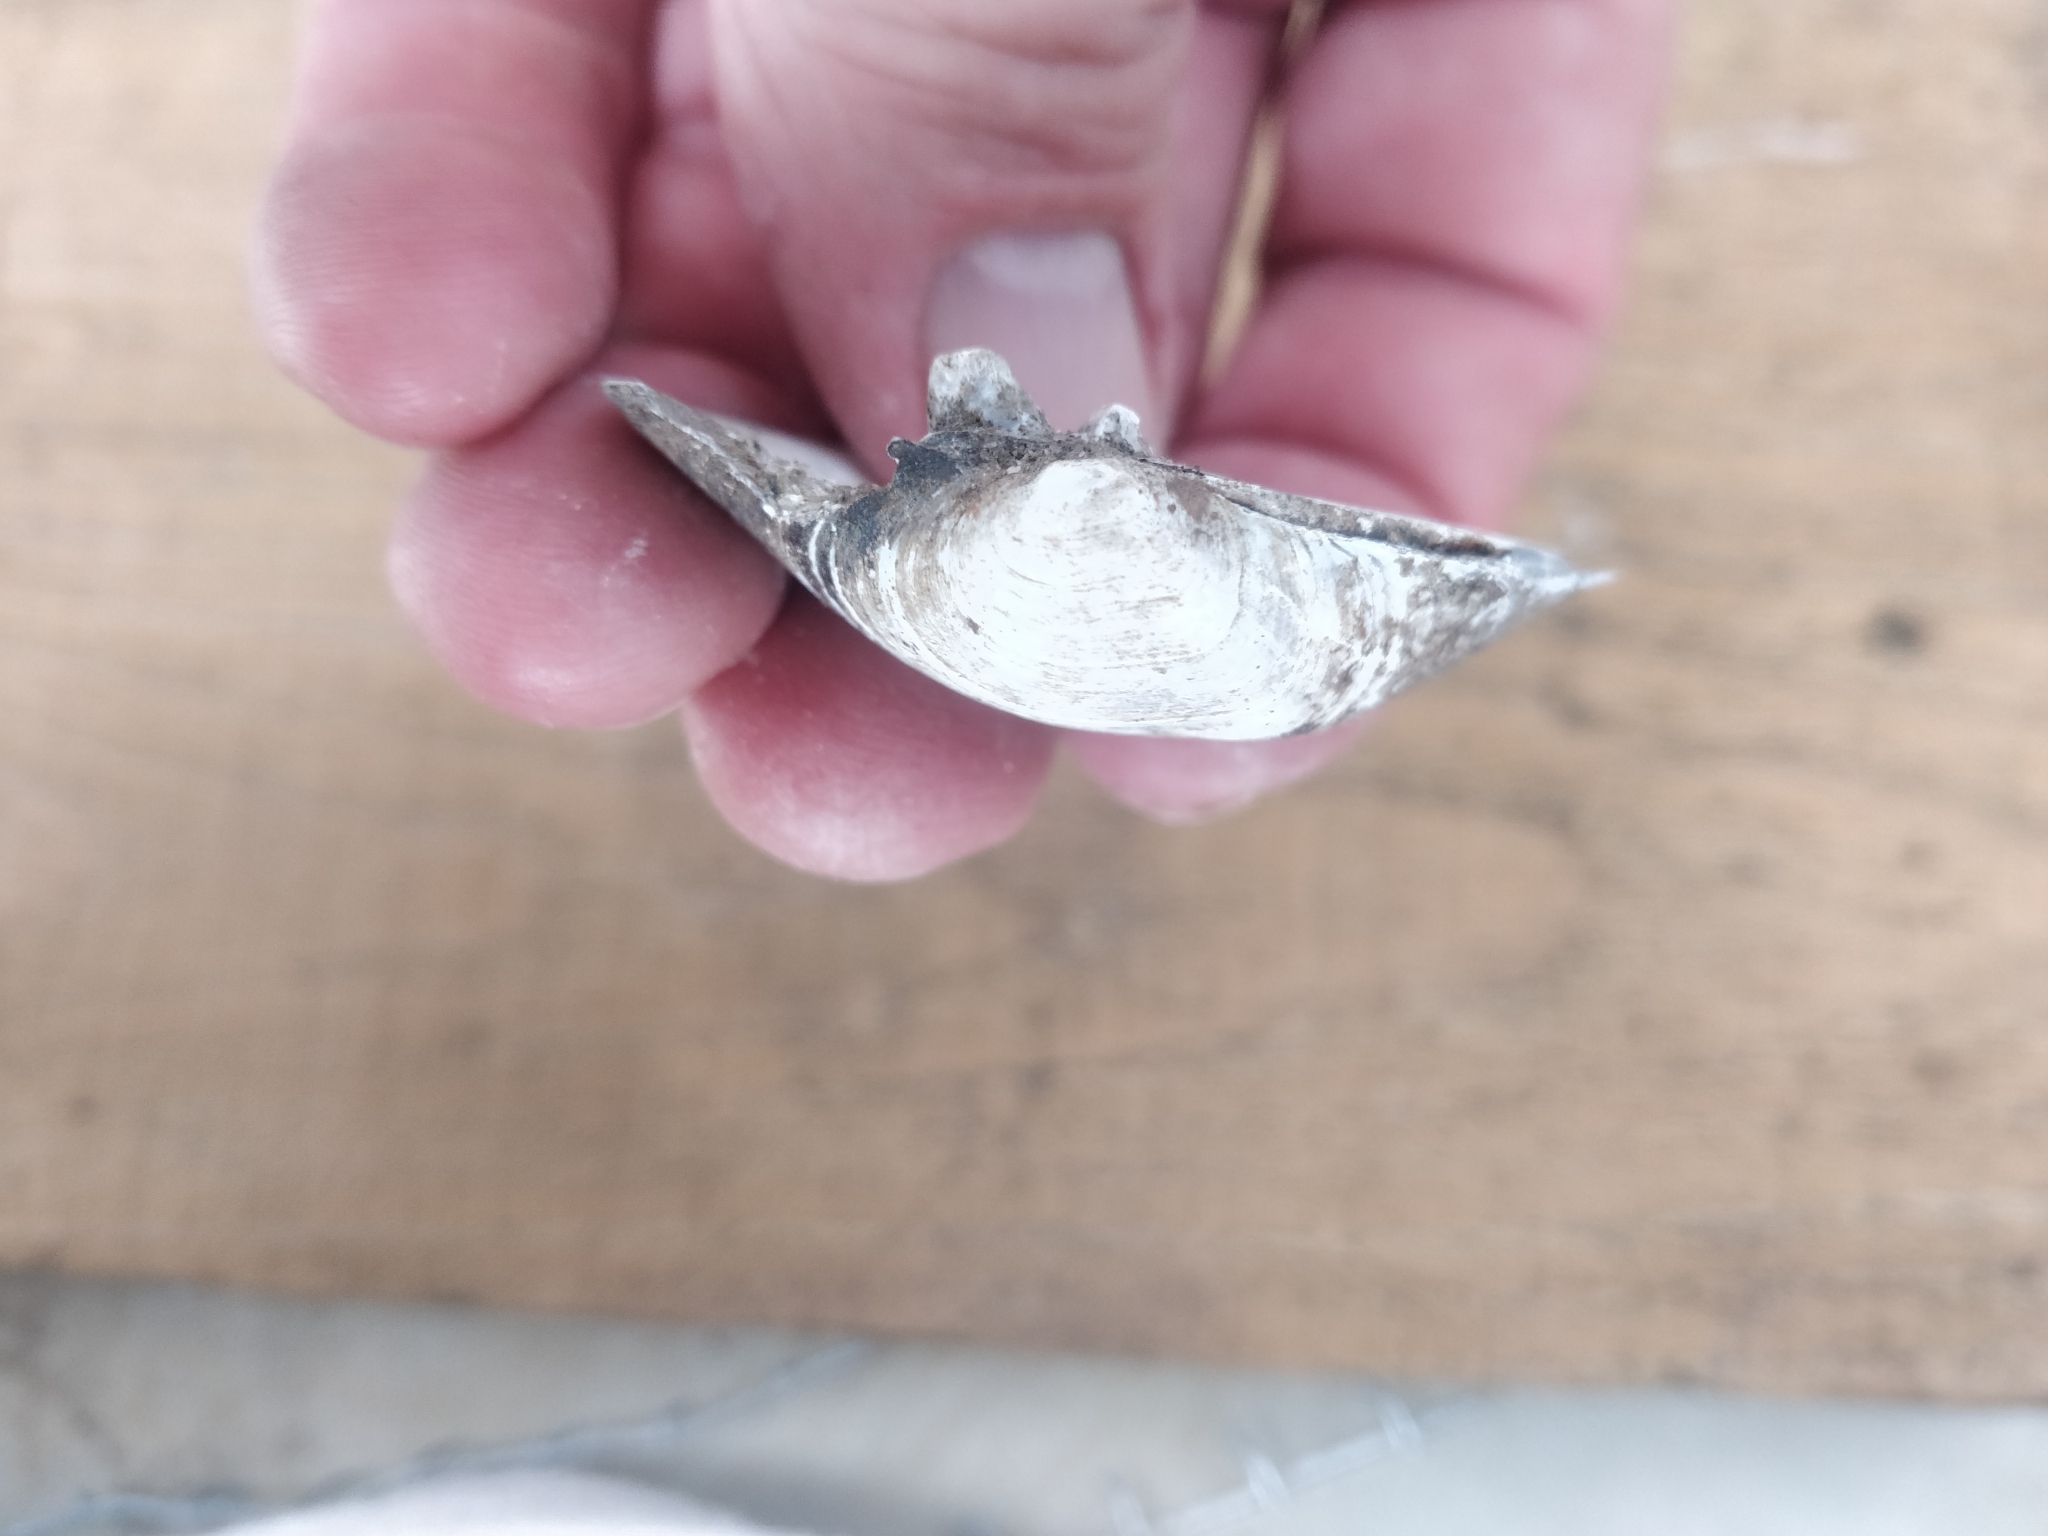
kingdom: Animalia
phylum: Mollusca
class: Bivalvia
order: Unionida
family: Unionidae
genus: Fusconaia
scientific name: Fusconaia flava
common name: Wabash pigtoe
